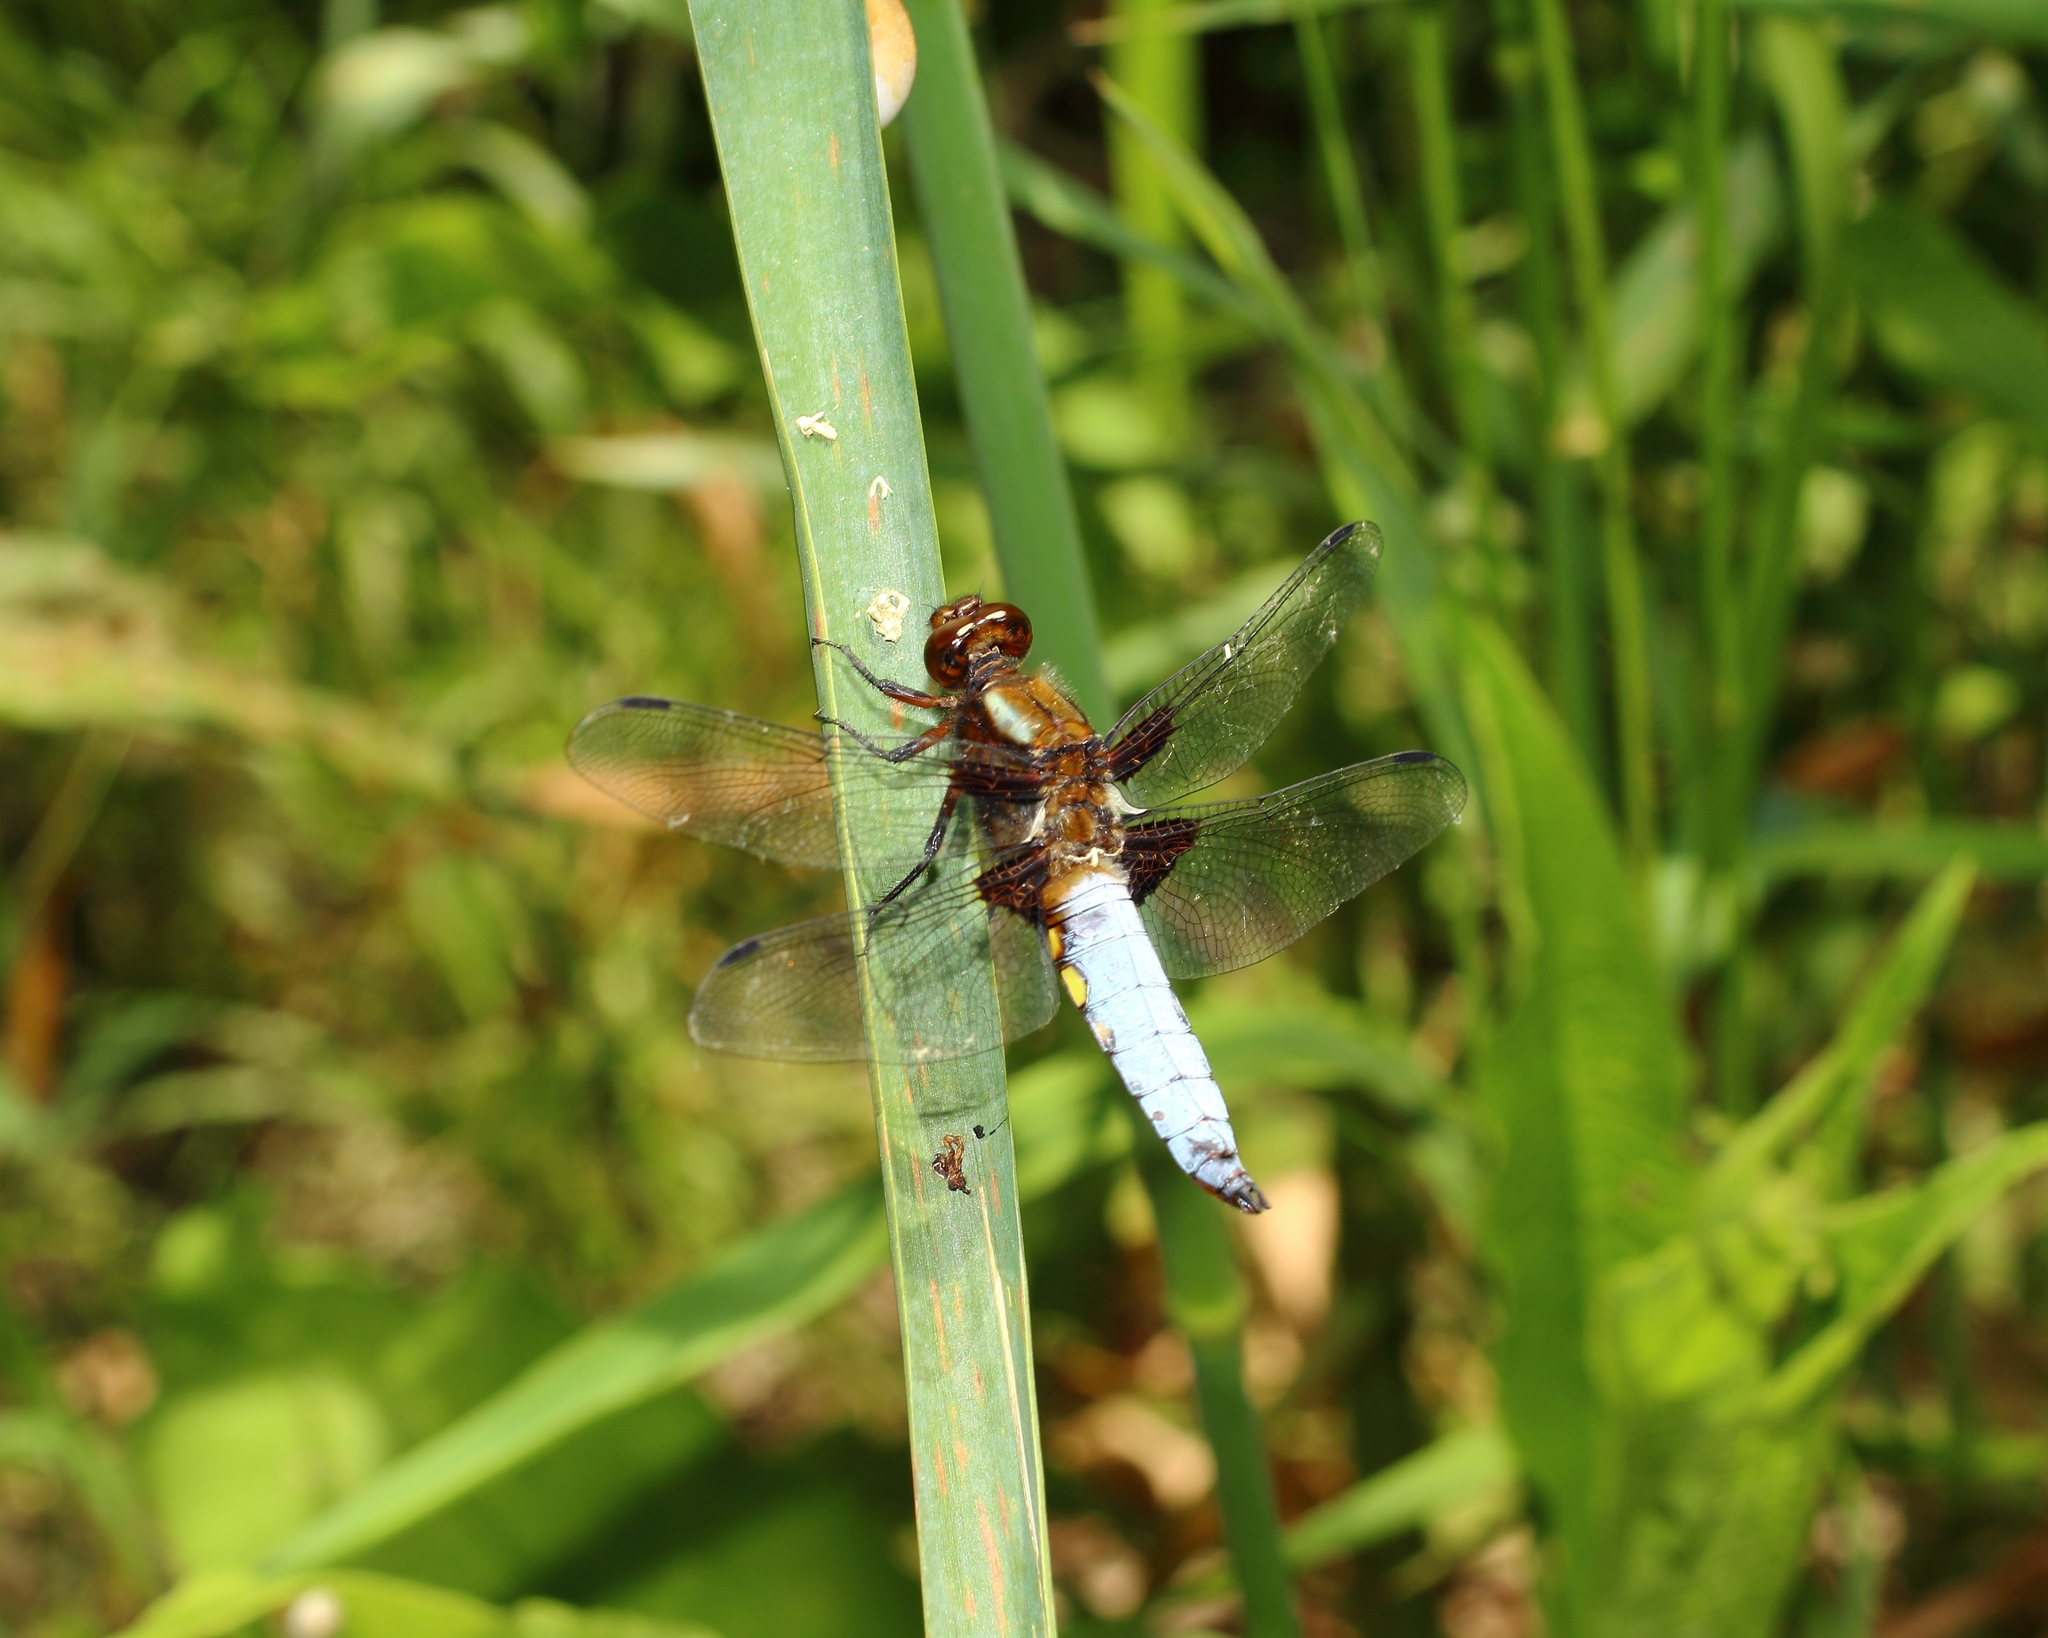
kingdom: Animalia
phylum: Arthropoda
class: Insecta
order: Odonata
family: Libellulidae
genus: Libellula
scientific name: Libellula depressa
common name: Broad-bodied chaser
